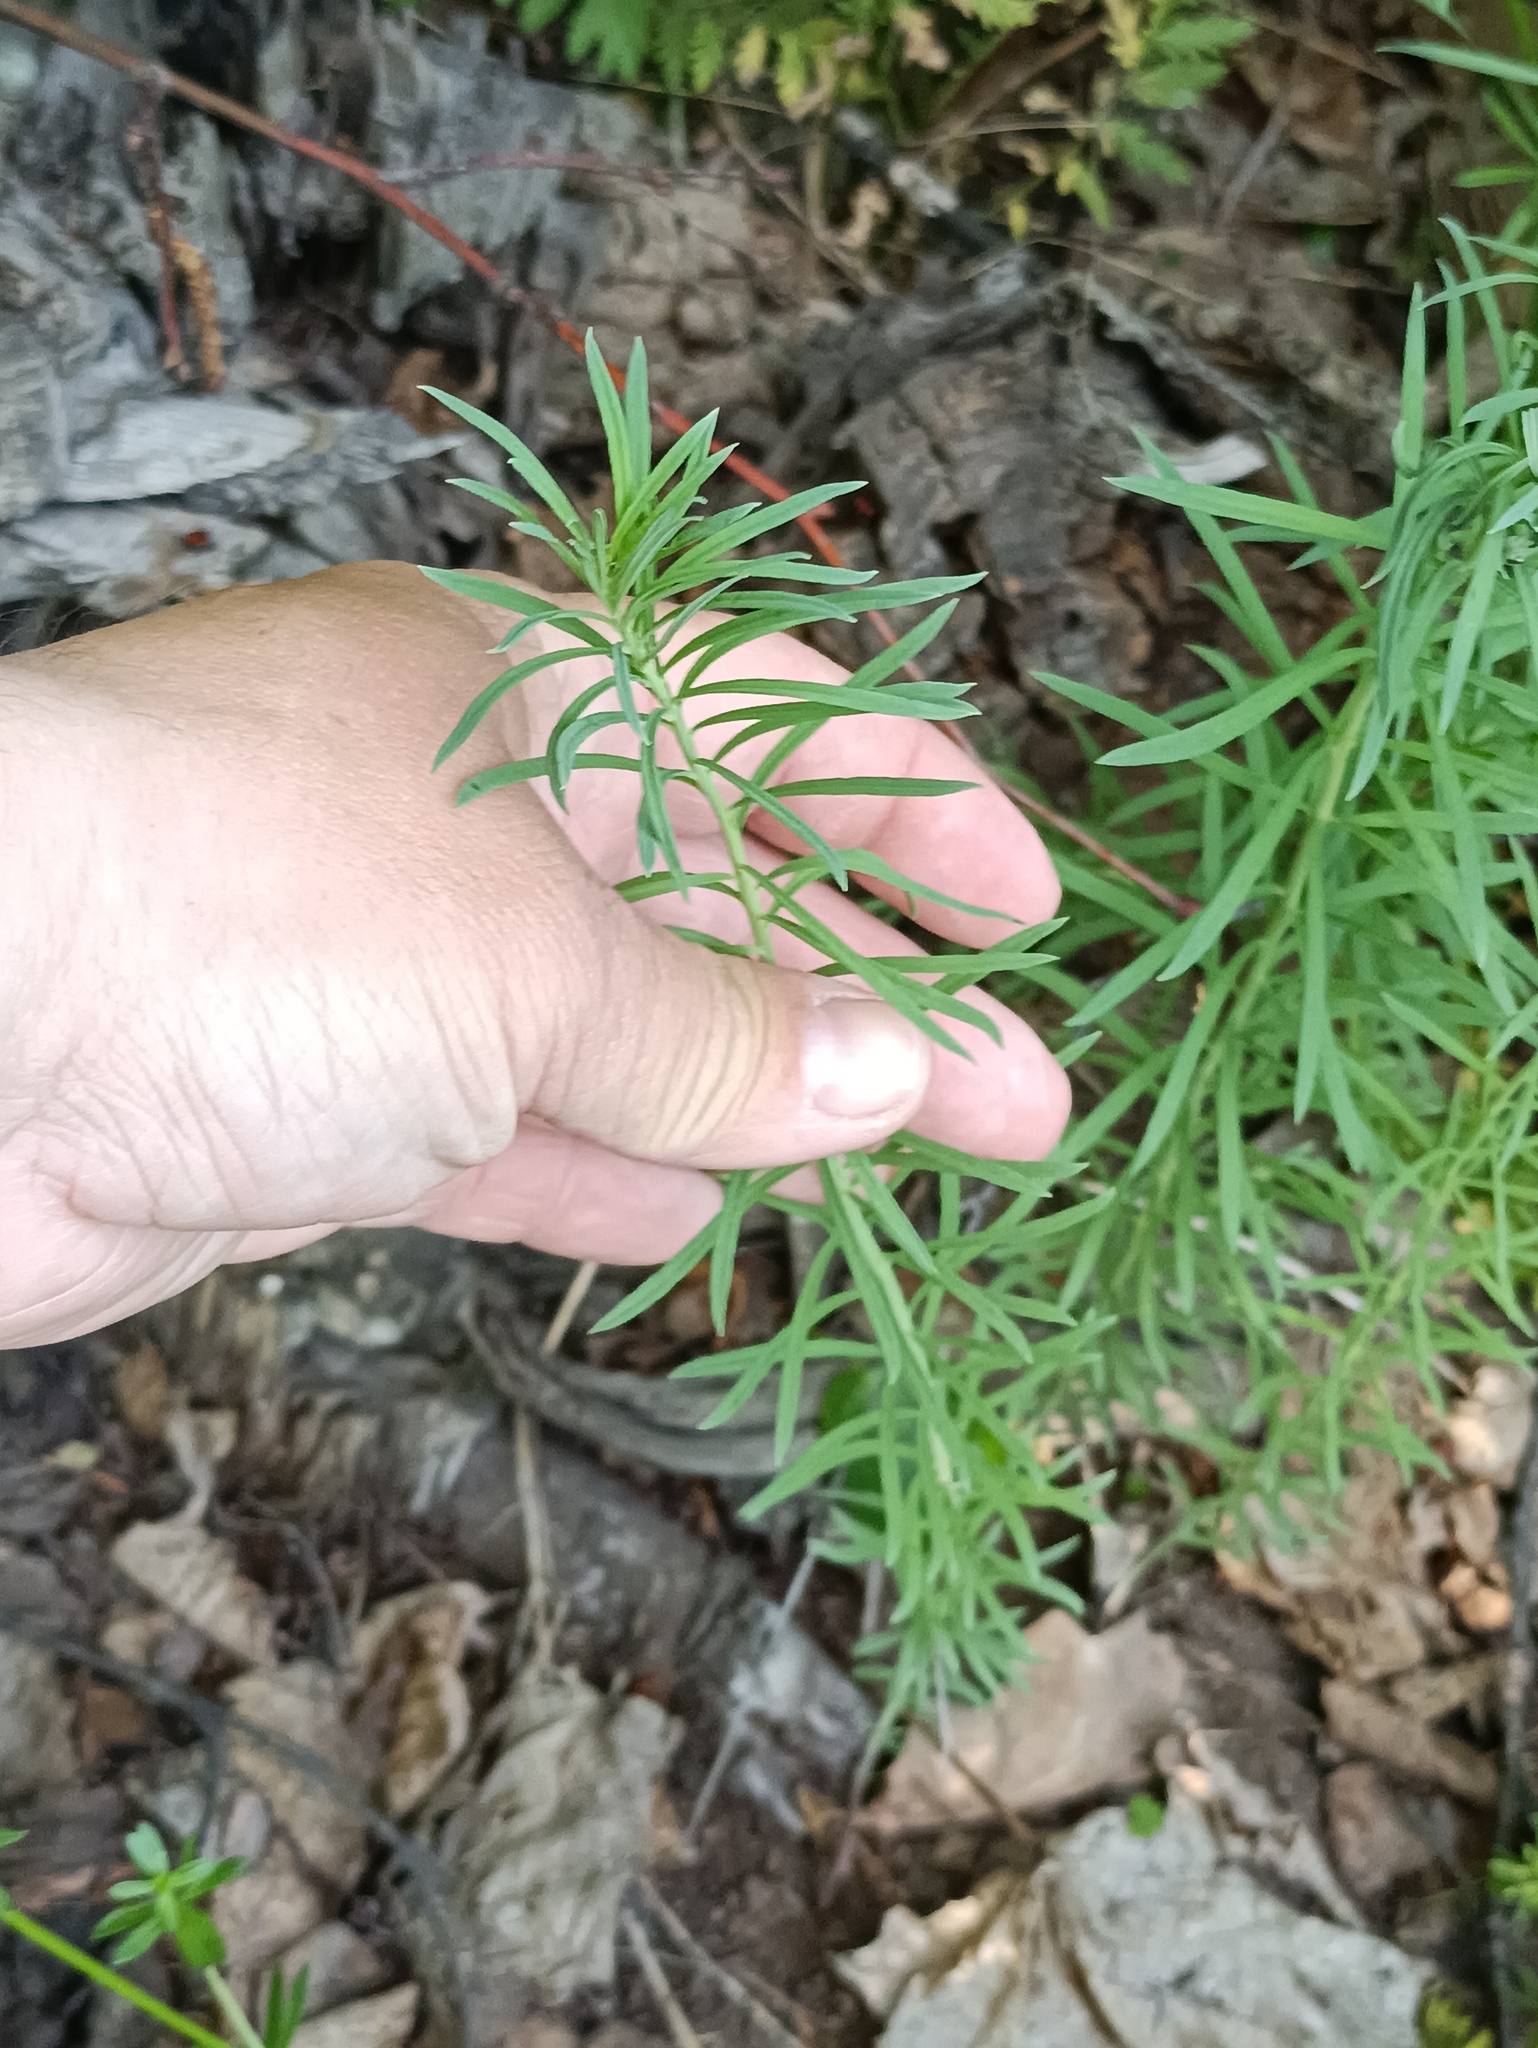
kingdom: Plantae
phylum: Tracheophyta
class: Magnoliopsida
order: Lamiales
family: Plantaginaceae
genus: Linaria
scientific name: Linaria vulgaris
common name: Butter and eggs
